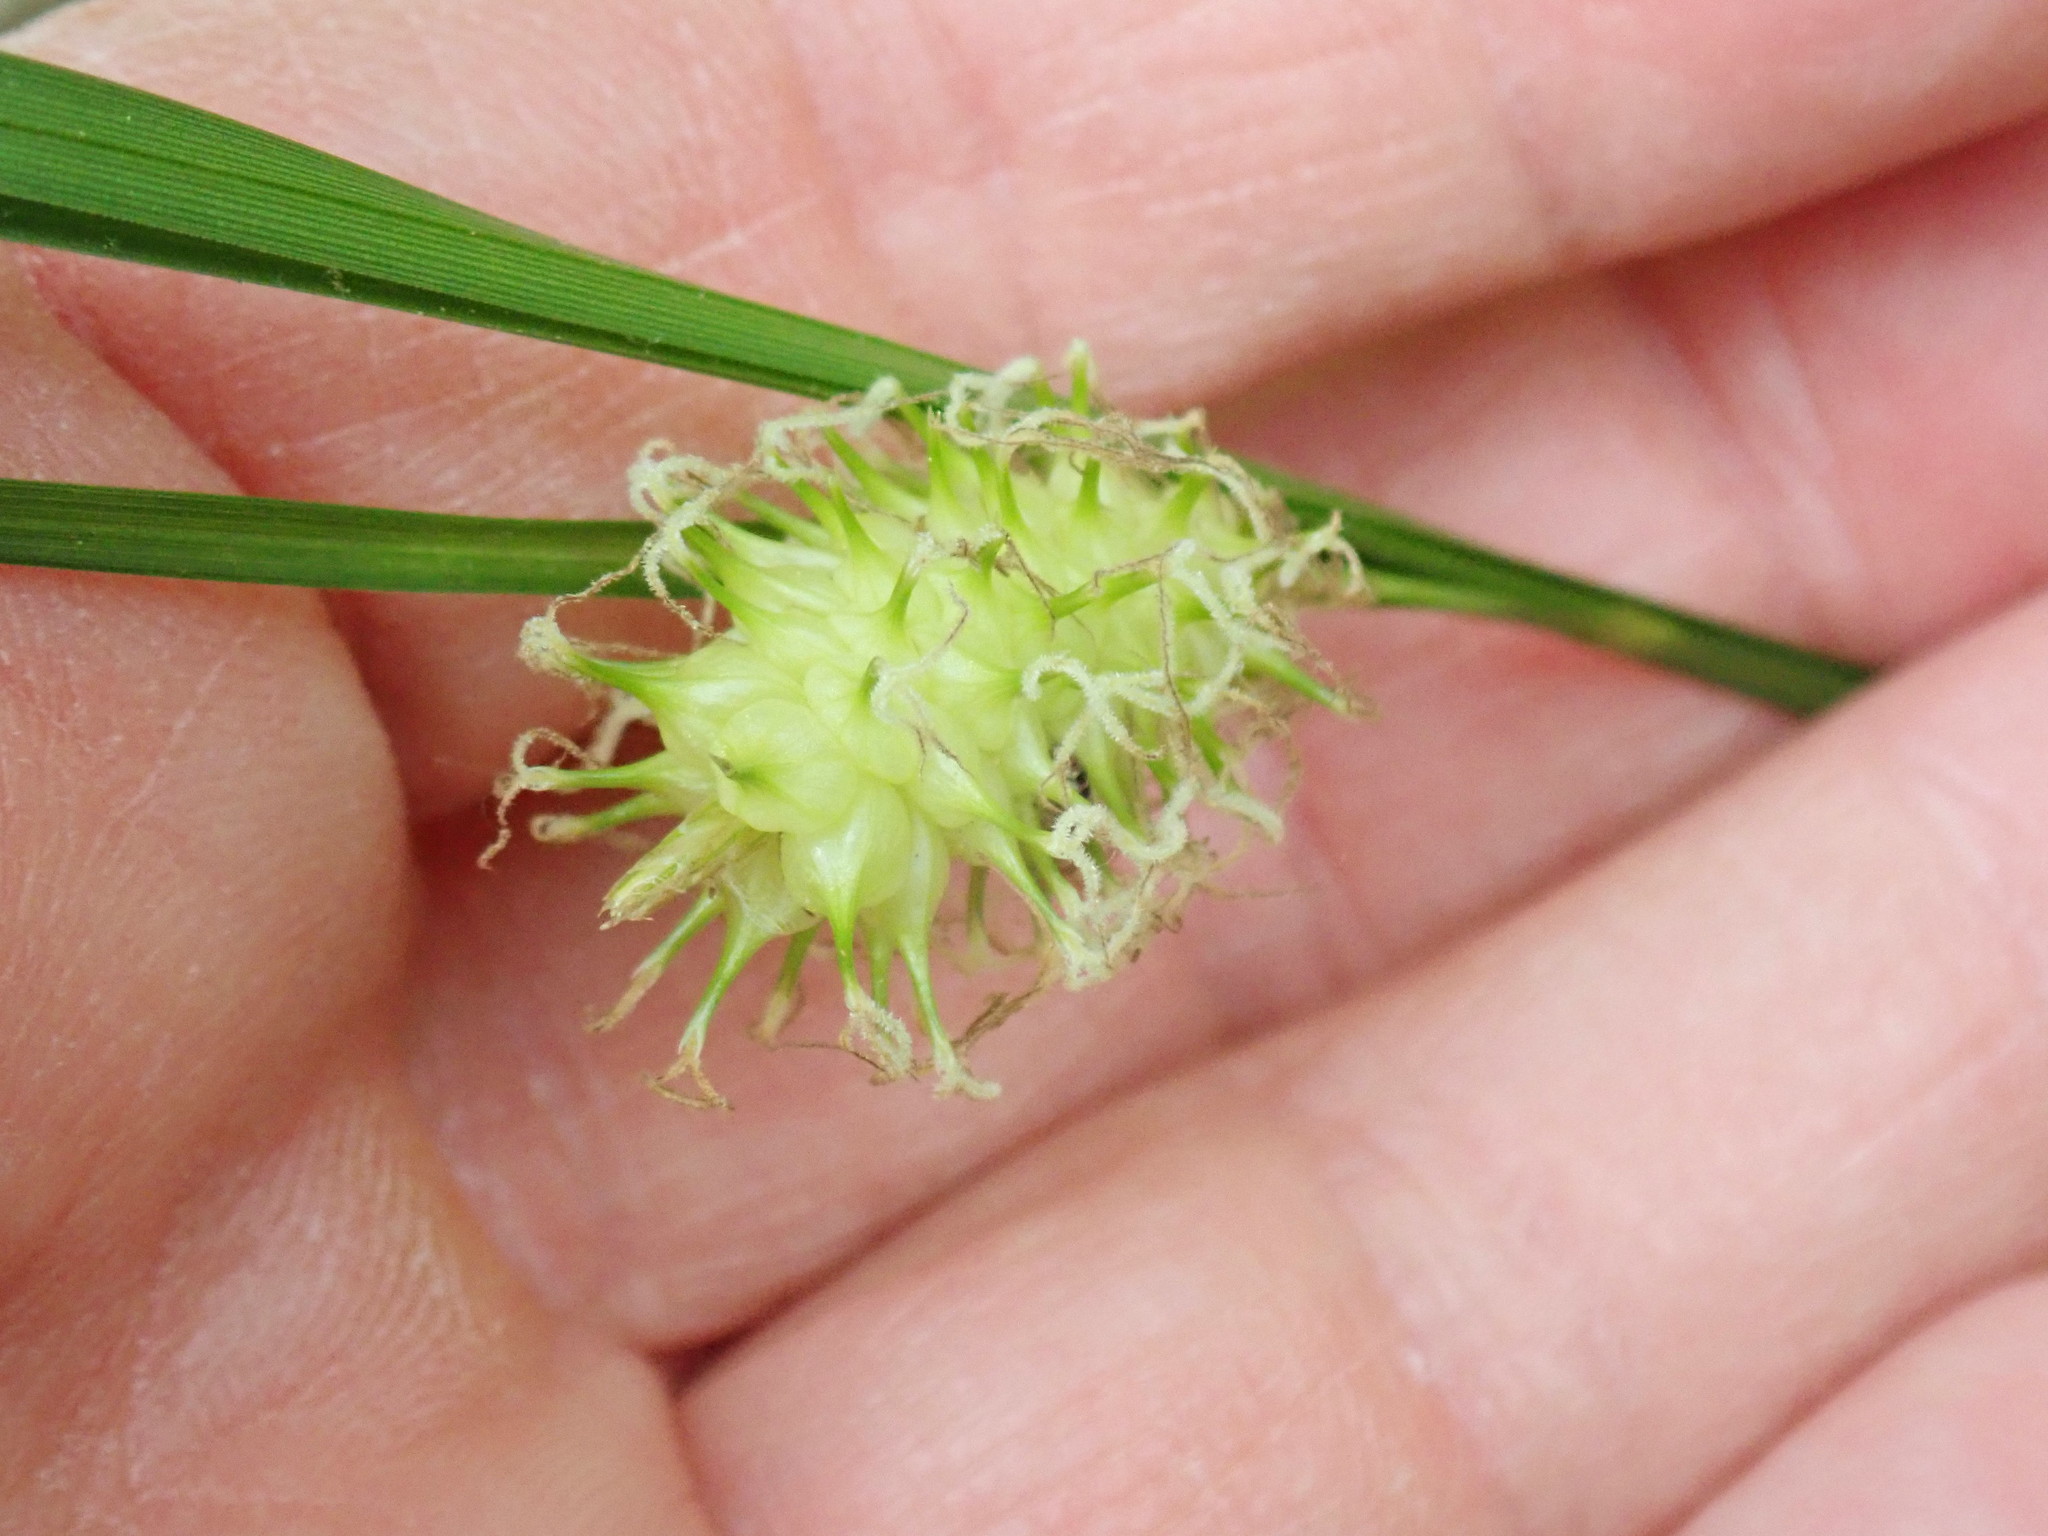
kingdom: Plantae
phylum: Tracheophyta
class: Liliopsida
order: Poales
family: Cyperaceae
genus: Carex
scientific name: Carex bullata
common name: Button sedge
